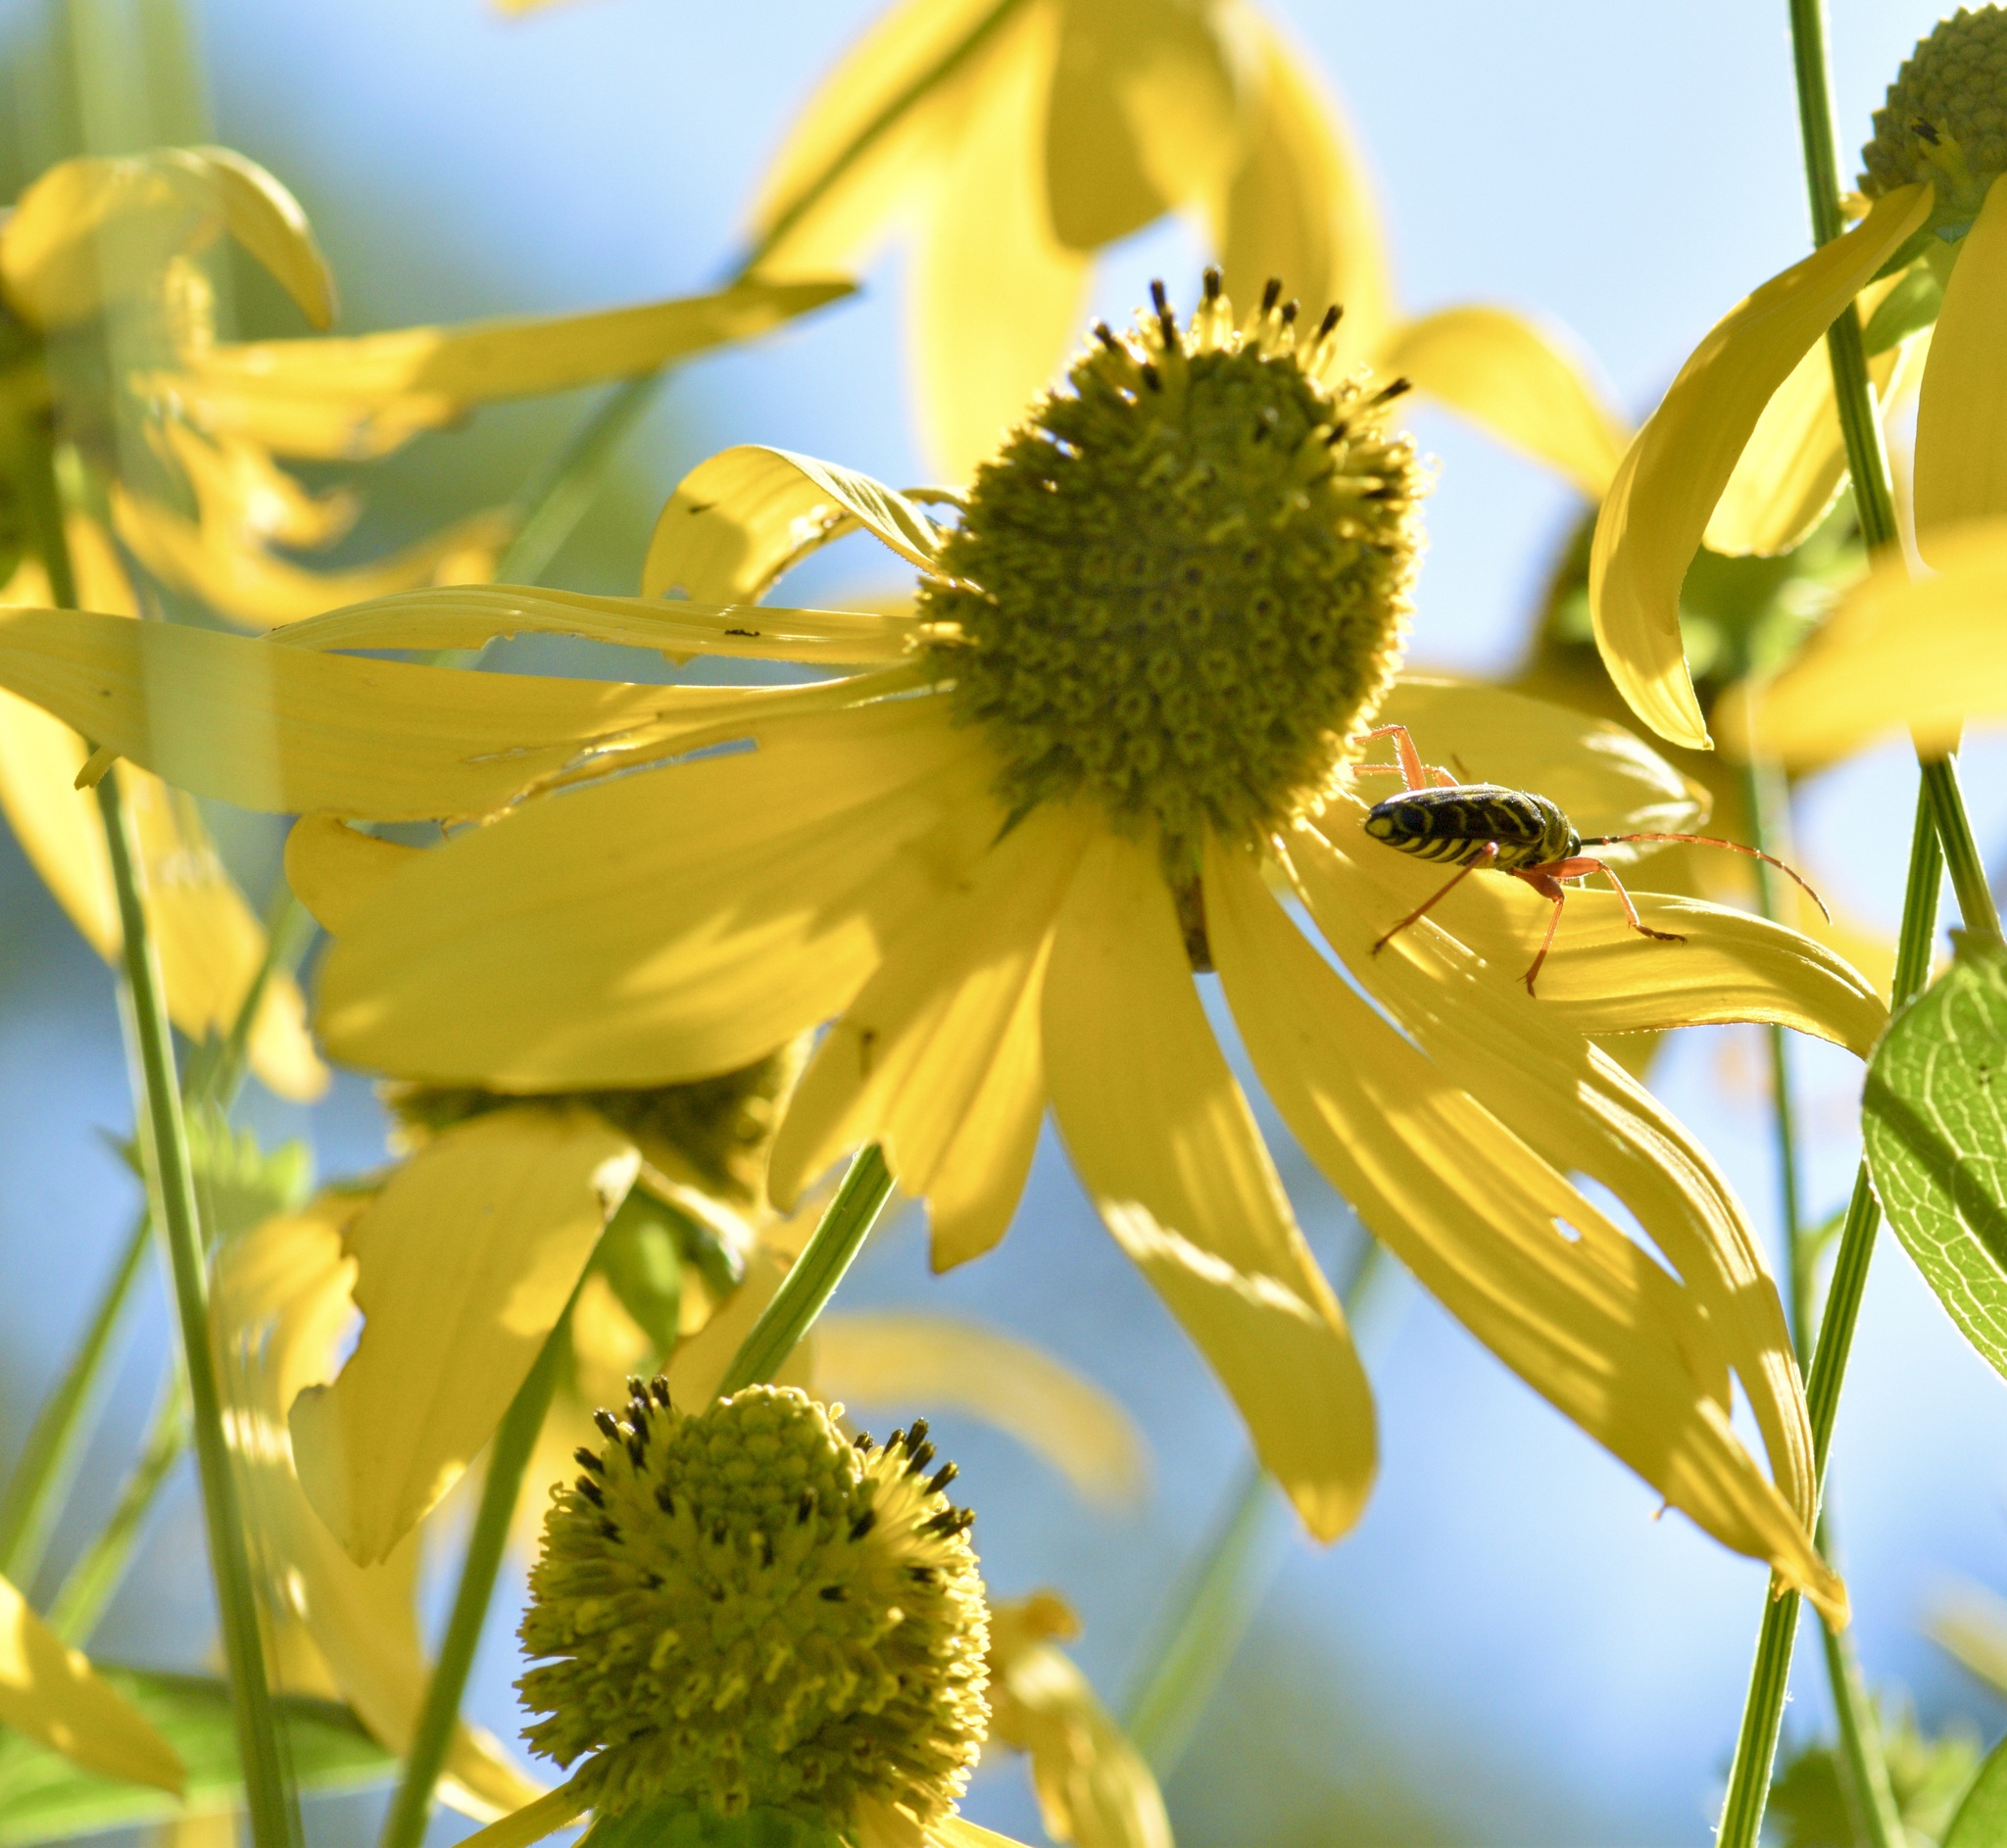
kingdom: Animalia
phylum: Arthropoda
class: Insecta
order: Coleoptera
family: Cerambycidae
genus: Megacyllene
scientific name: Megacyllene robiniae
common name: Locust borer
